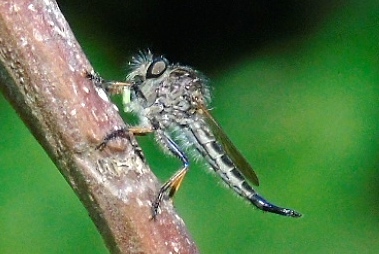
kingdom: Animalia
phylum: Arthropoda
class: Insecta
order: Diptera
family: Asilidae
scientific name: Asilidae
